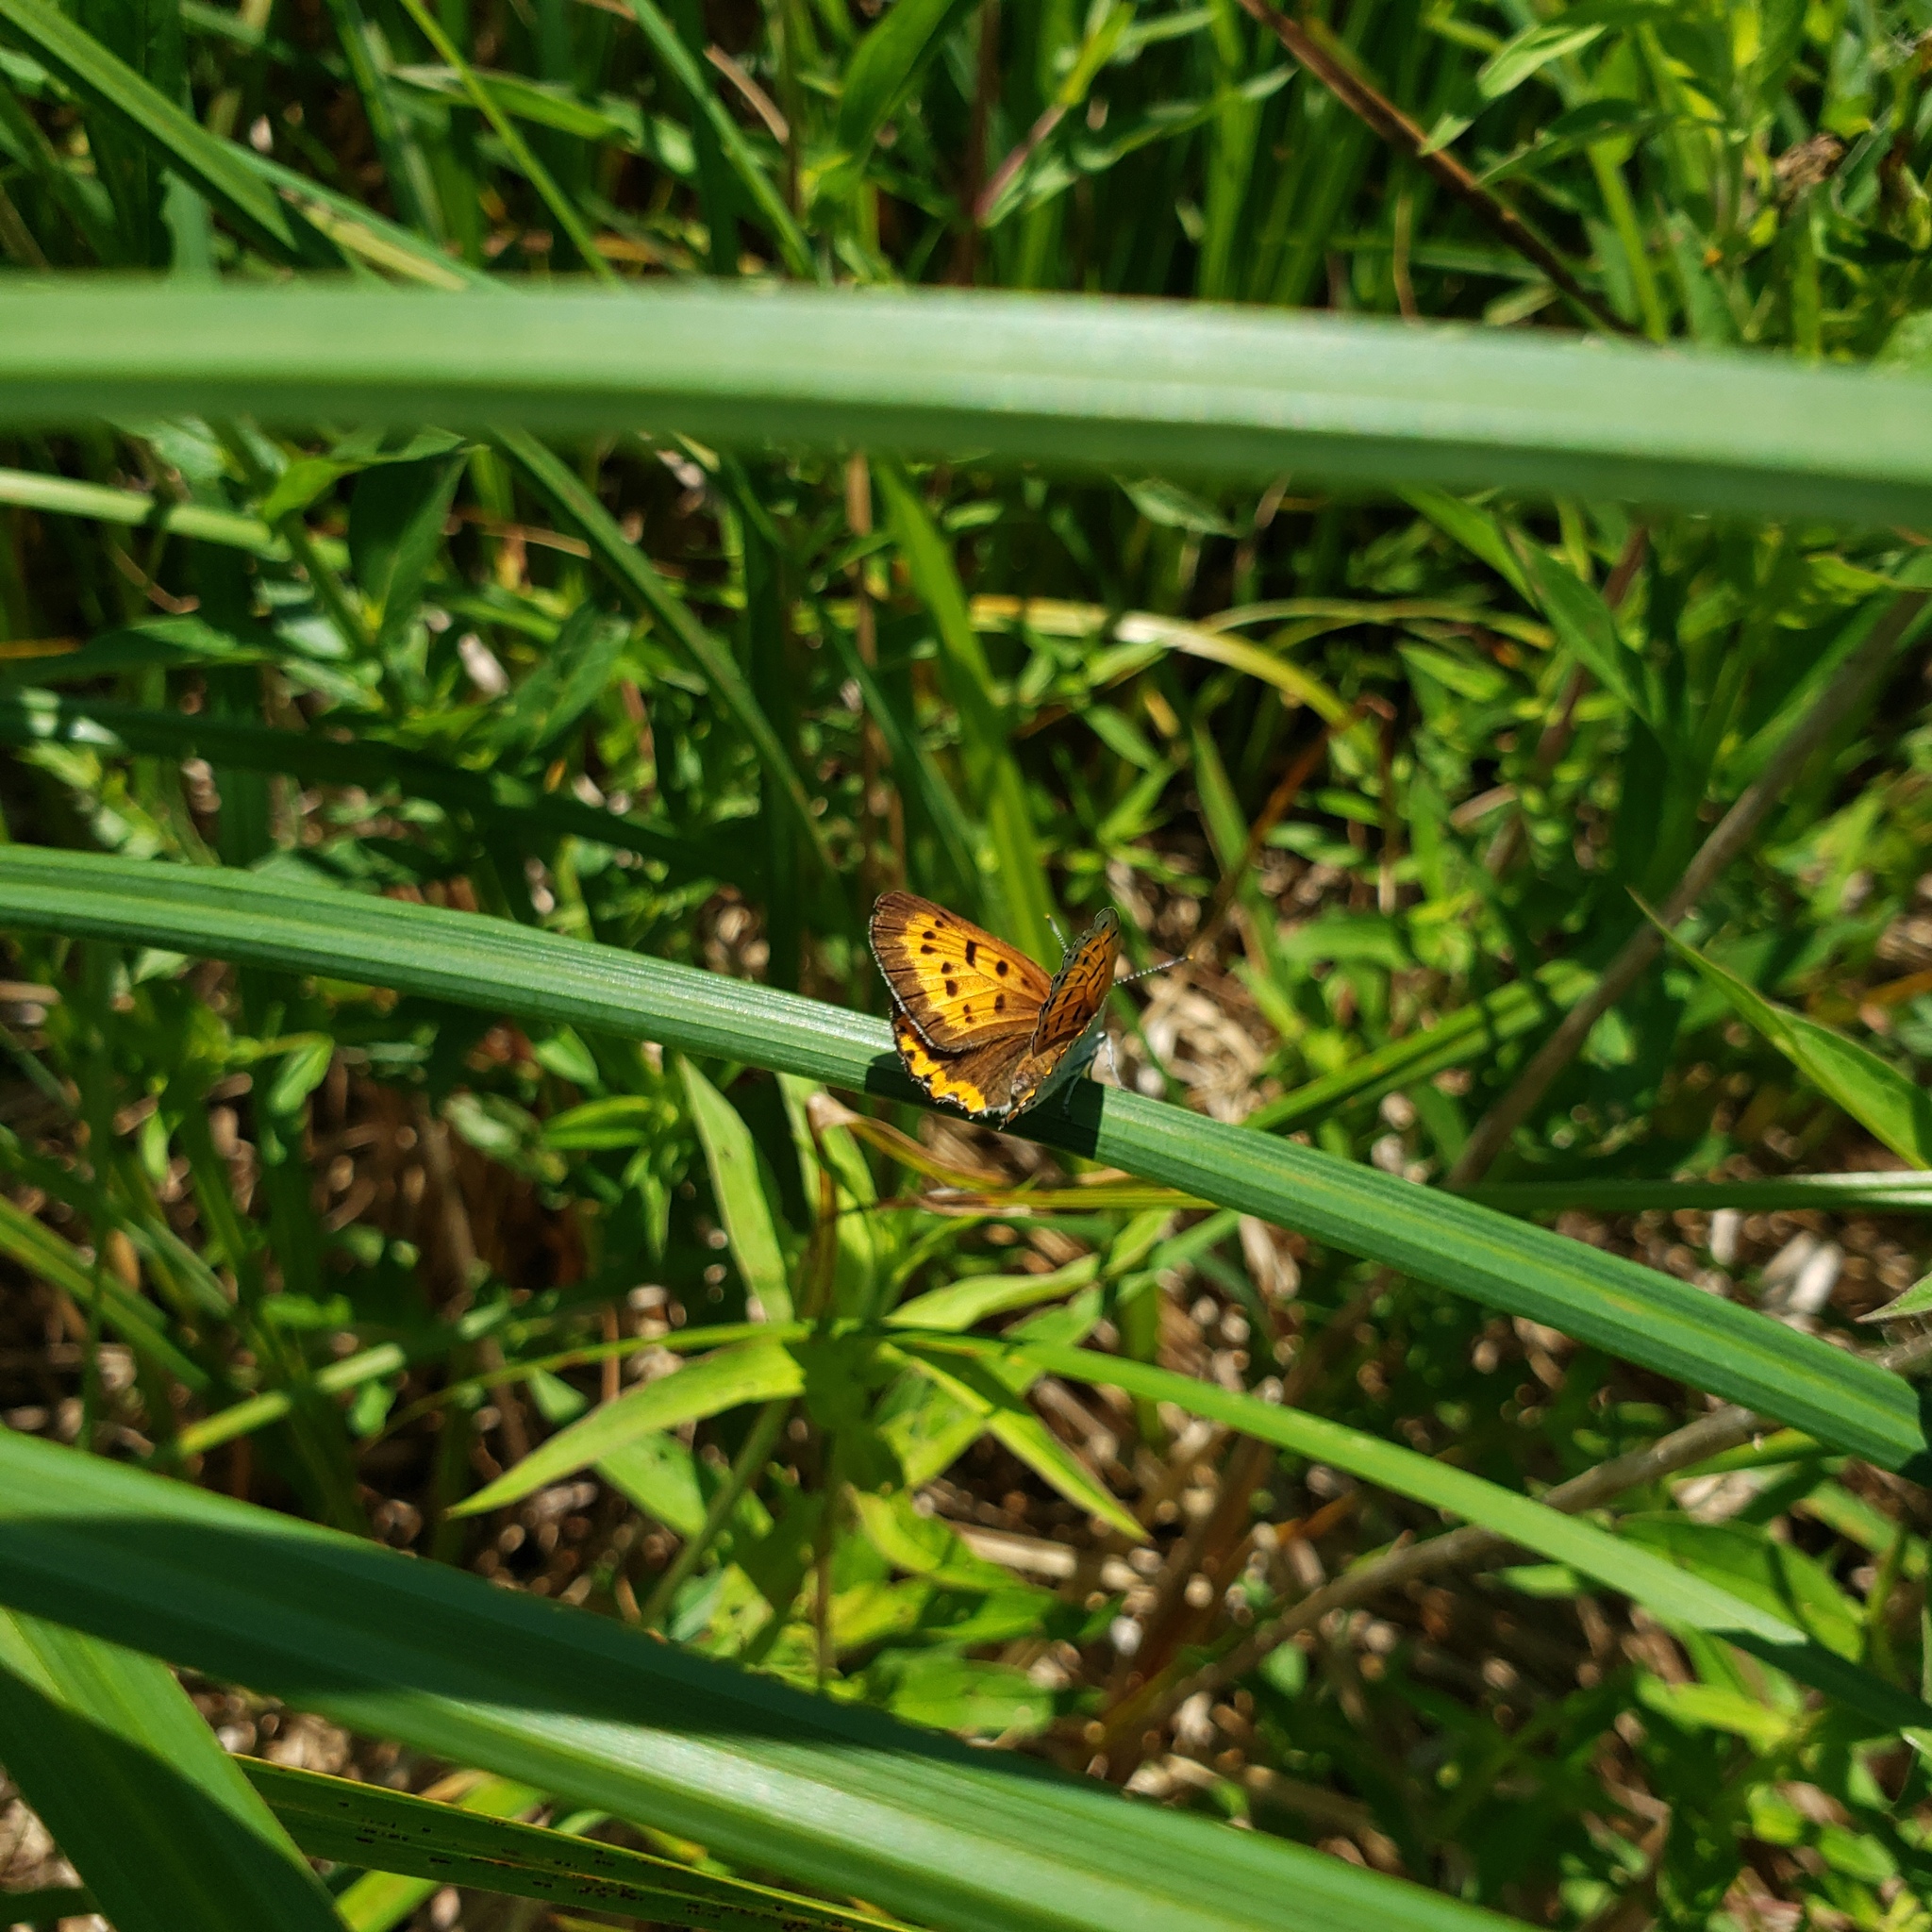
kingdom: Animalia
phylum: Arthropoda
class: Insecta
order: Lepidoptera
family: Lycaenidae
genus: Tharsalea
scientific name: Tharsalea hyllus
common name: Bronze copper
